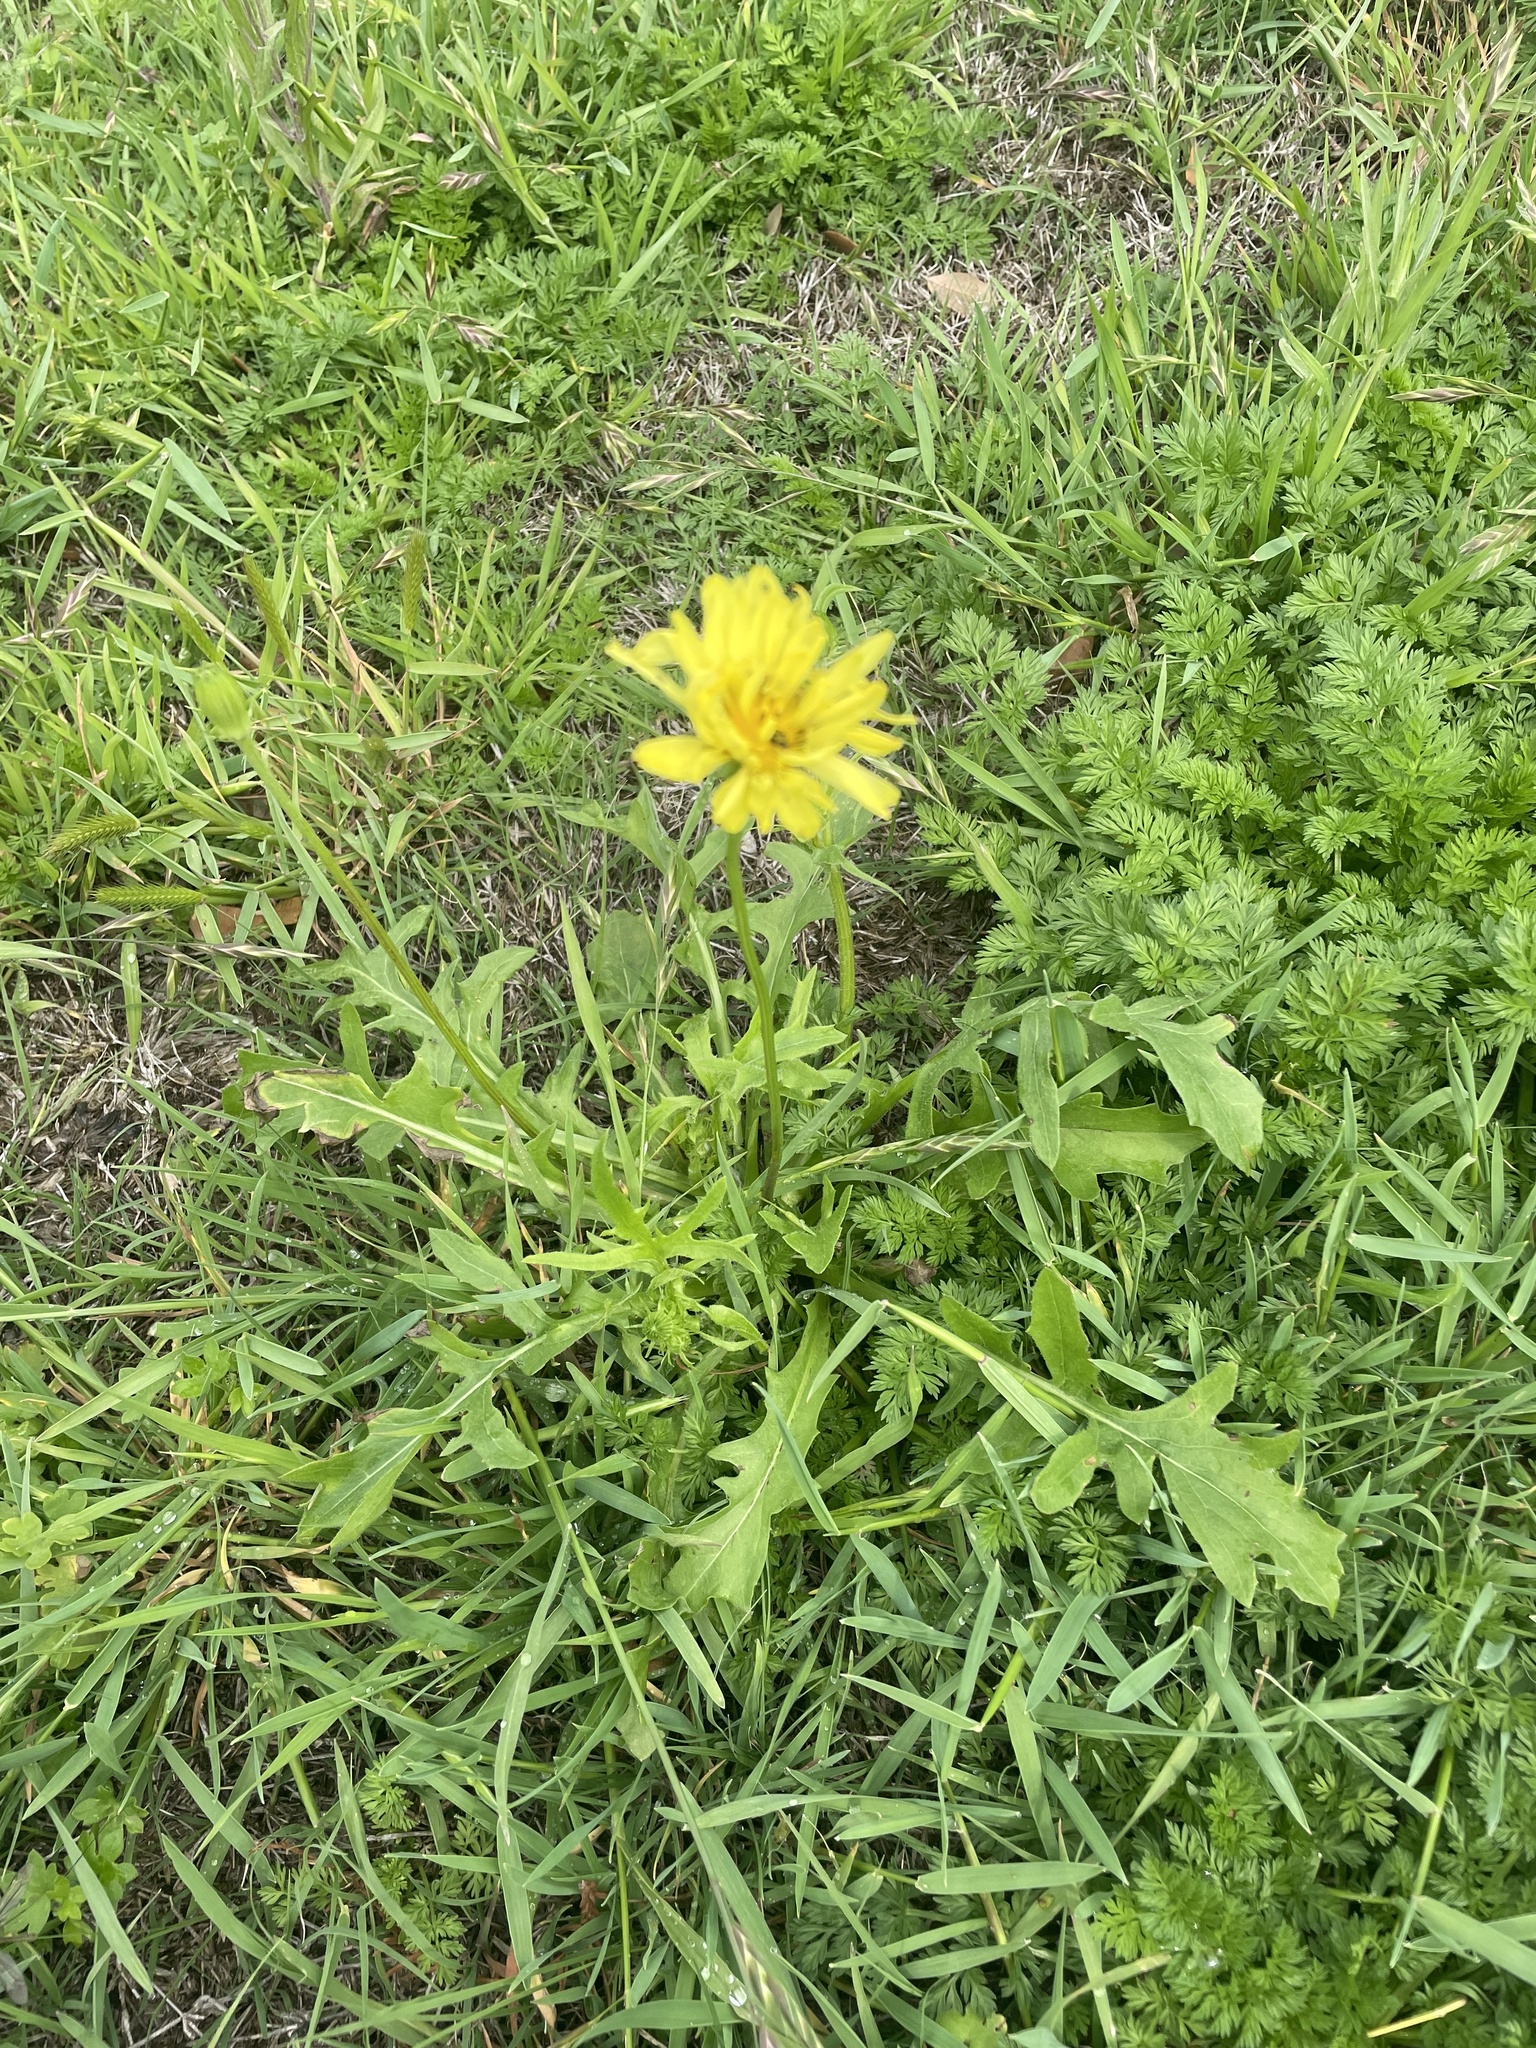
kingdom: Plantae
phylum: Tracheophyta
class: Magnoliopsida
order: Asterales
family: Asteraceae
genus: Pyrrhopappus
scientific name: Pyrrhopappus pauciflorus
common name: Texas false dandelion
